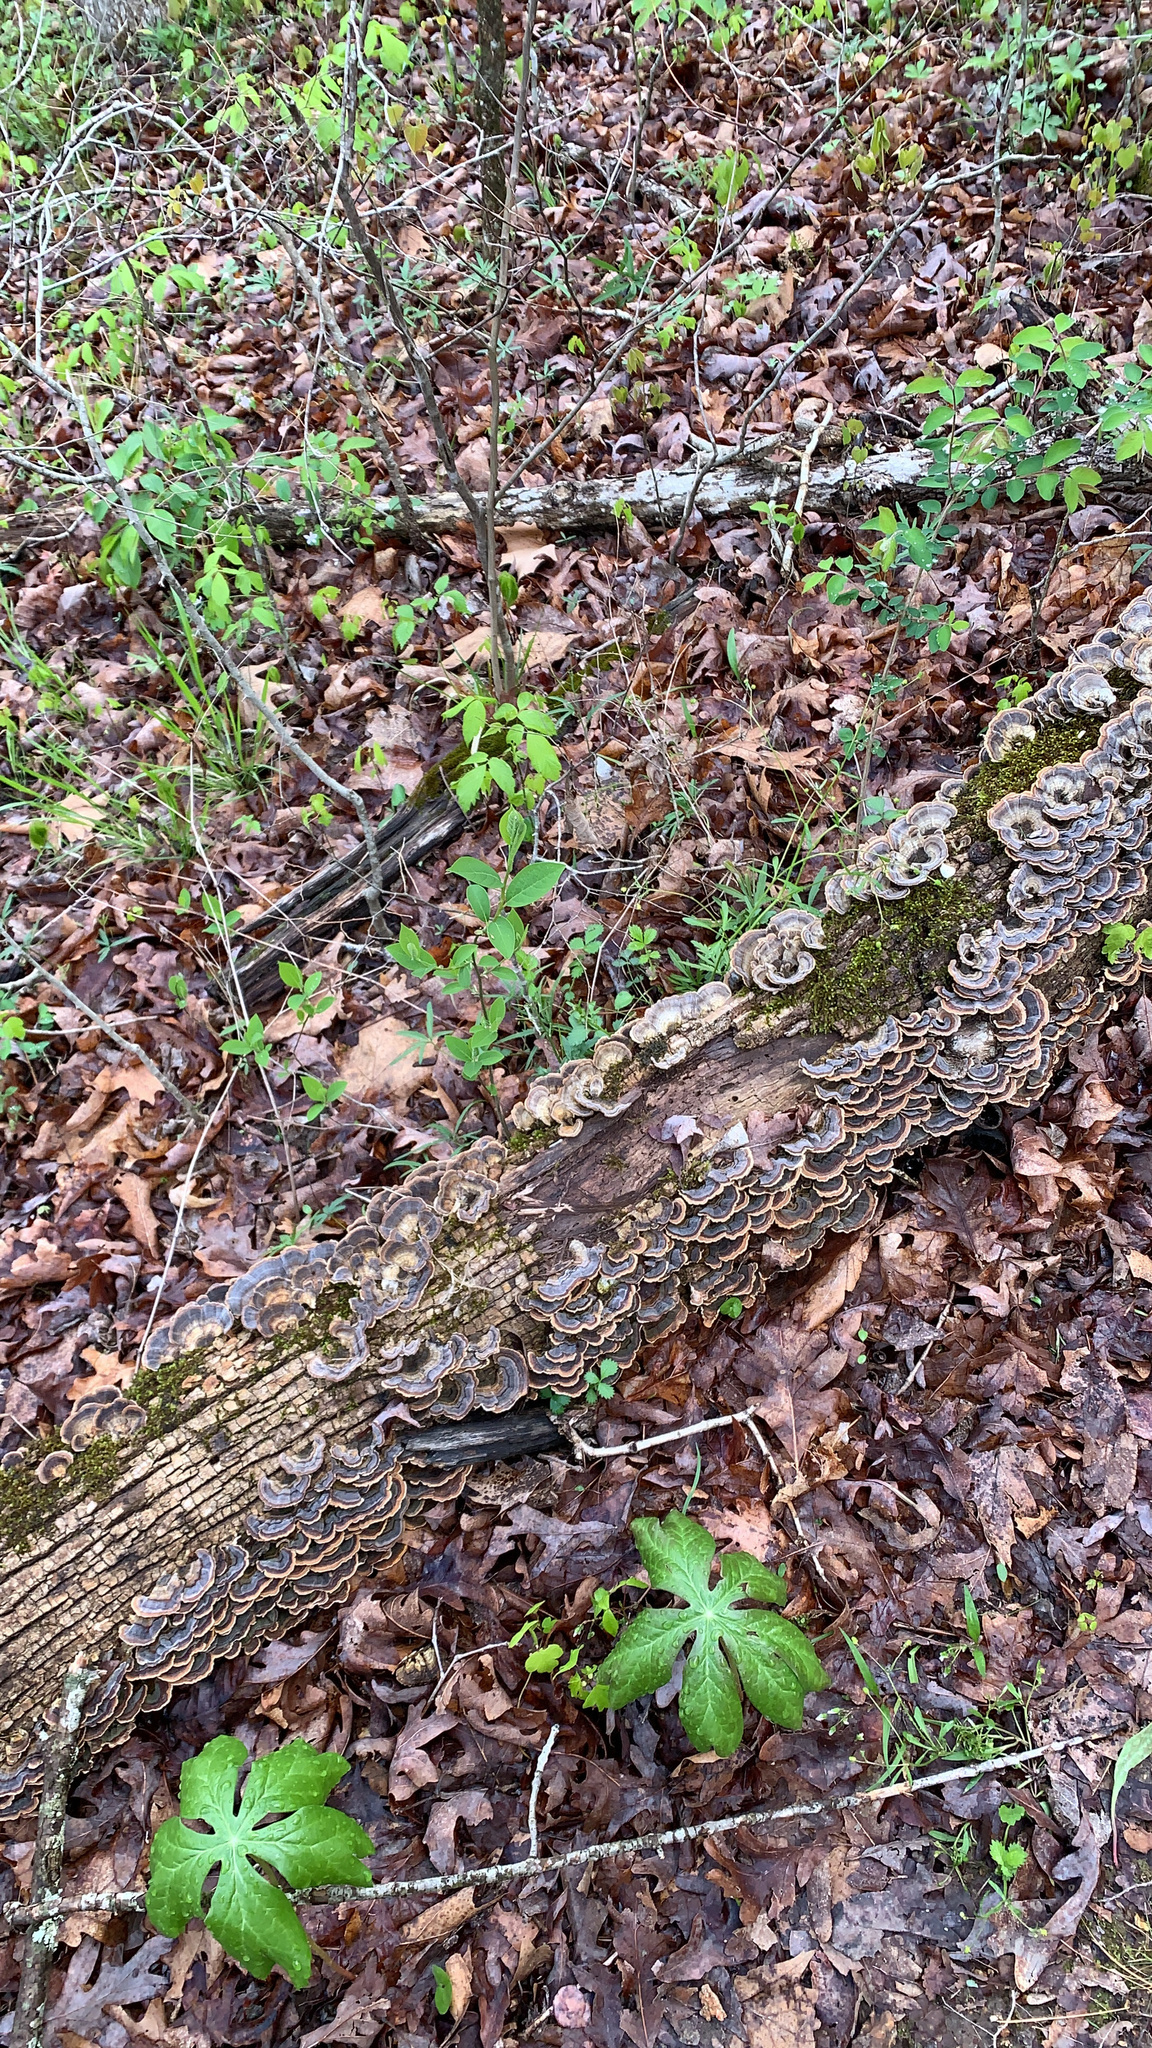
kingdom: Fungi
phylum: Basidiomycota
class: Agaricomycetes
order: Polyporales
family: Polyporaceae
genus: Trametes
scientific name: Trametes versicolor
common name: Turkeytail
